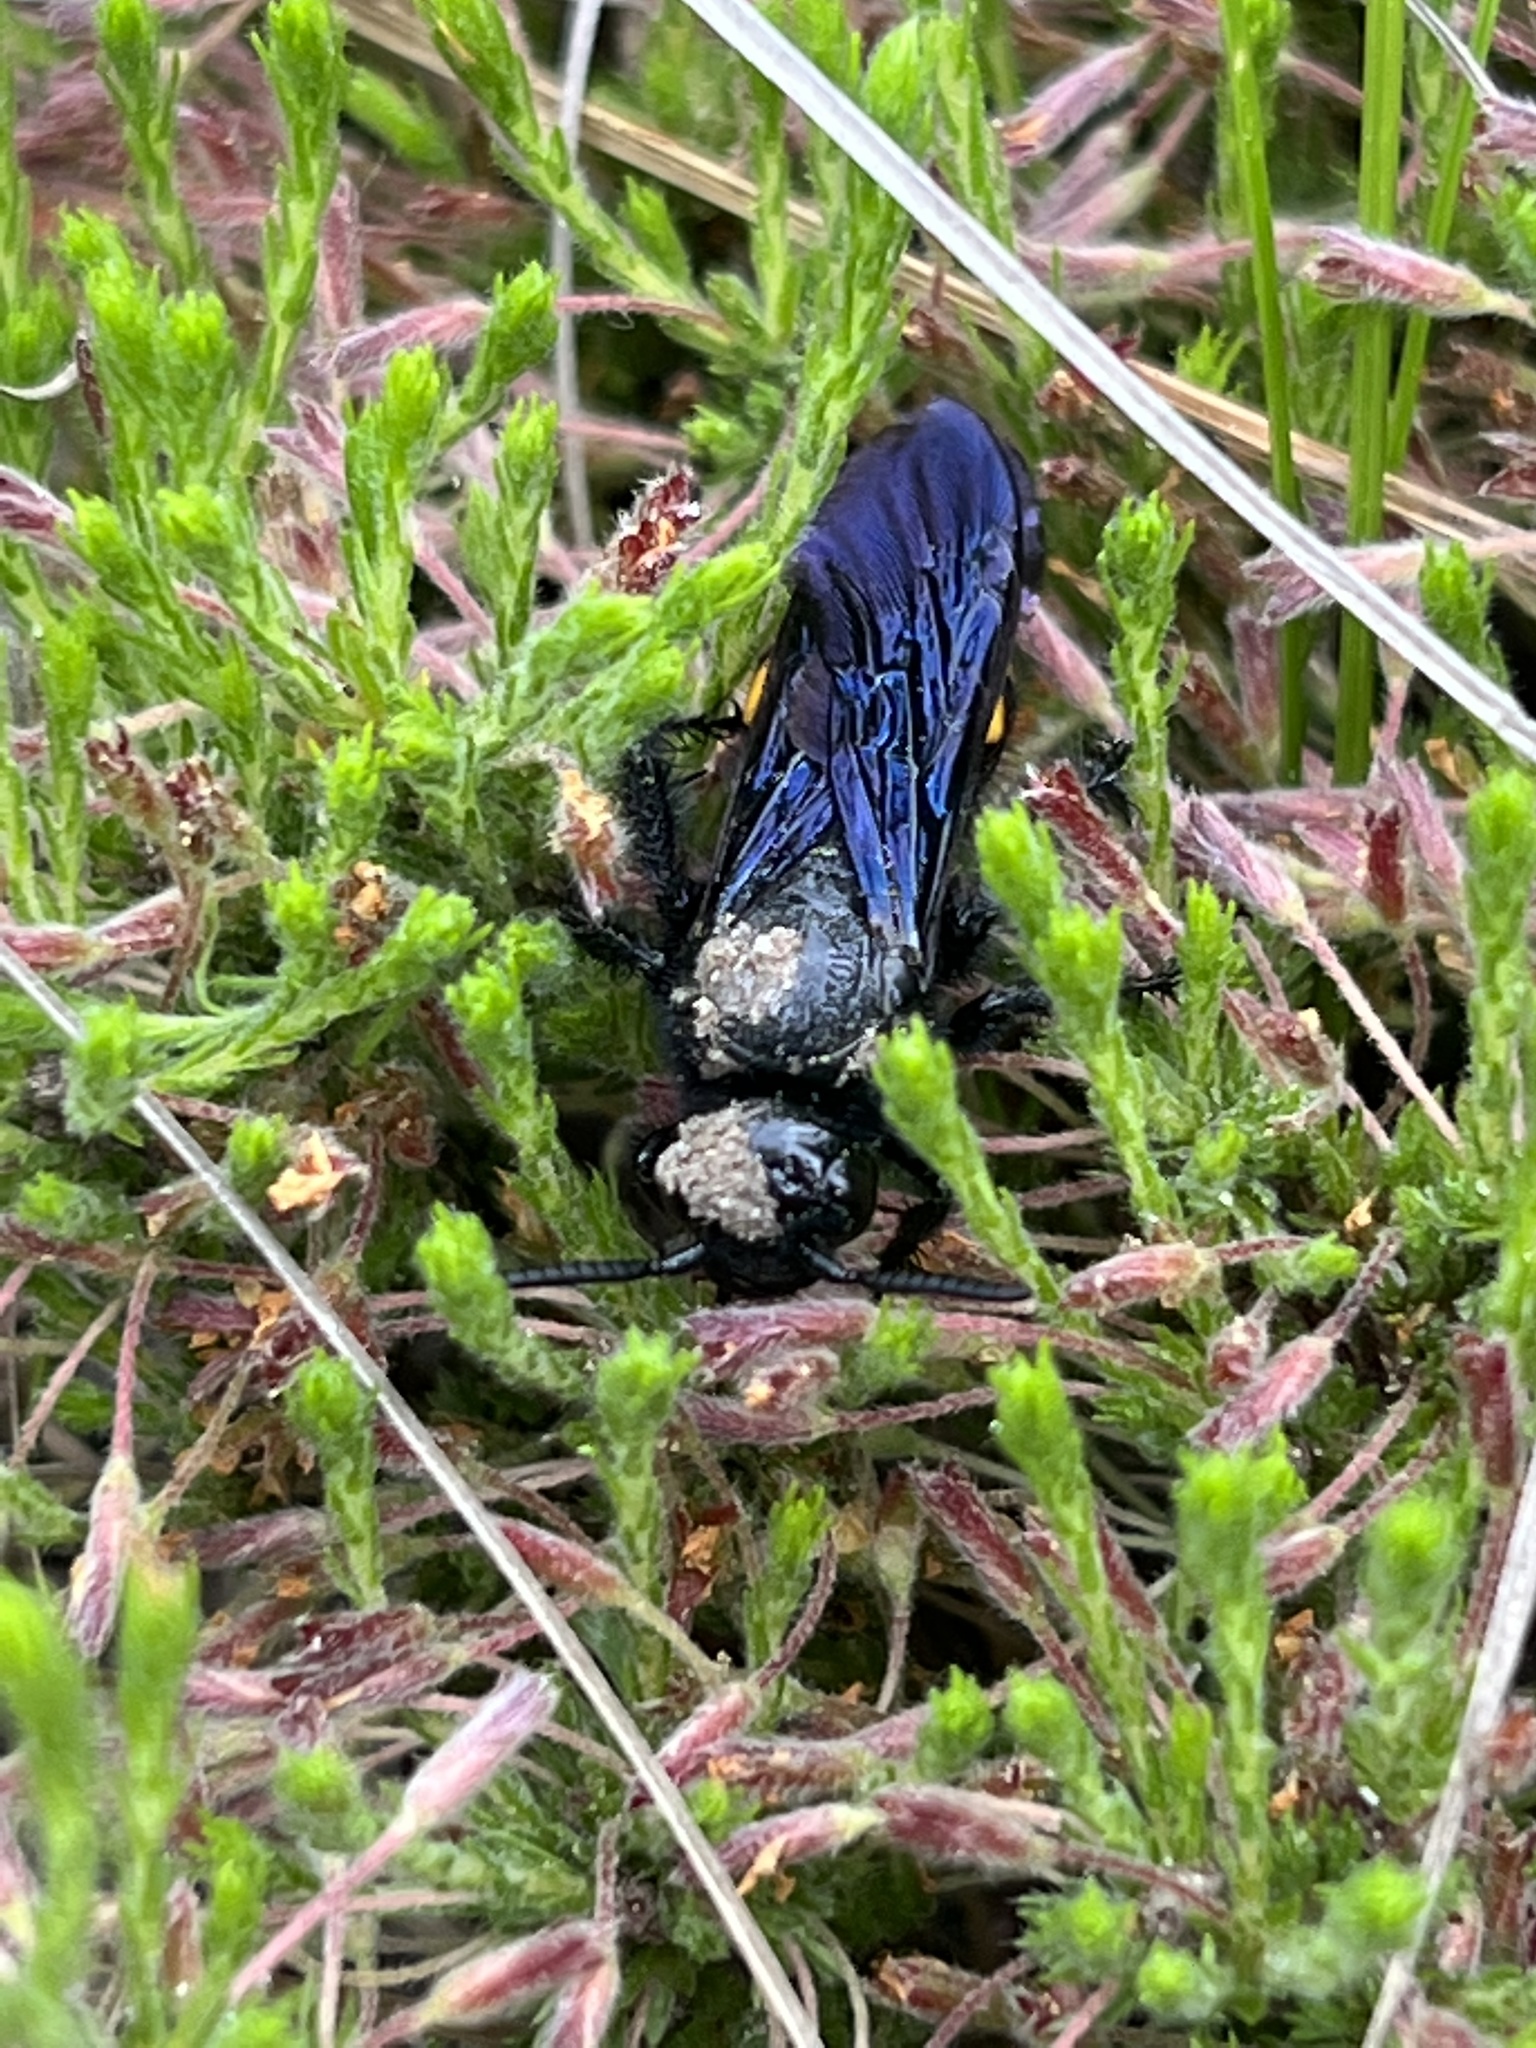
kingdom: Animalia
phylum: Arthropoda
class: Insecta
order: Hymenoptera
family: Scoliidae
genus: Pygodasis
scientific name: Pygodasis
